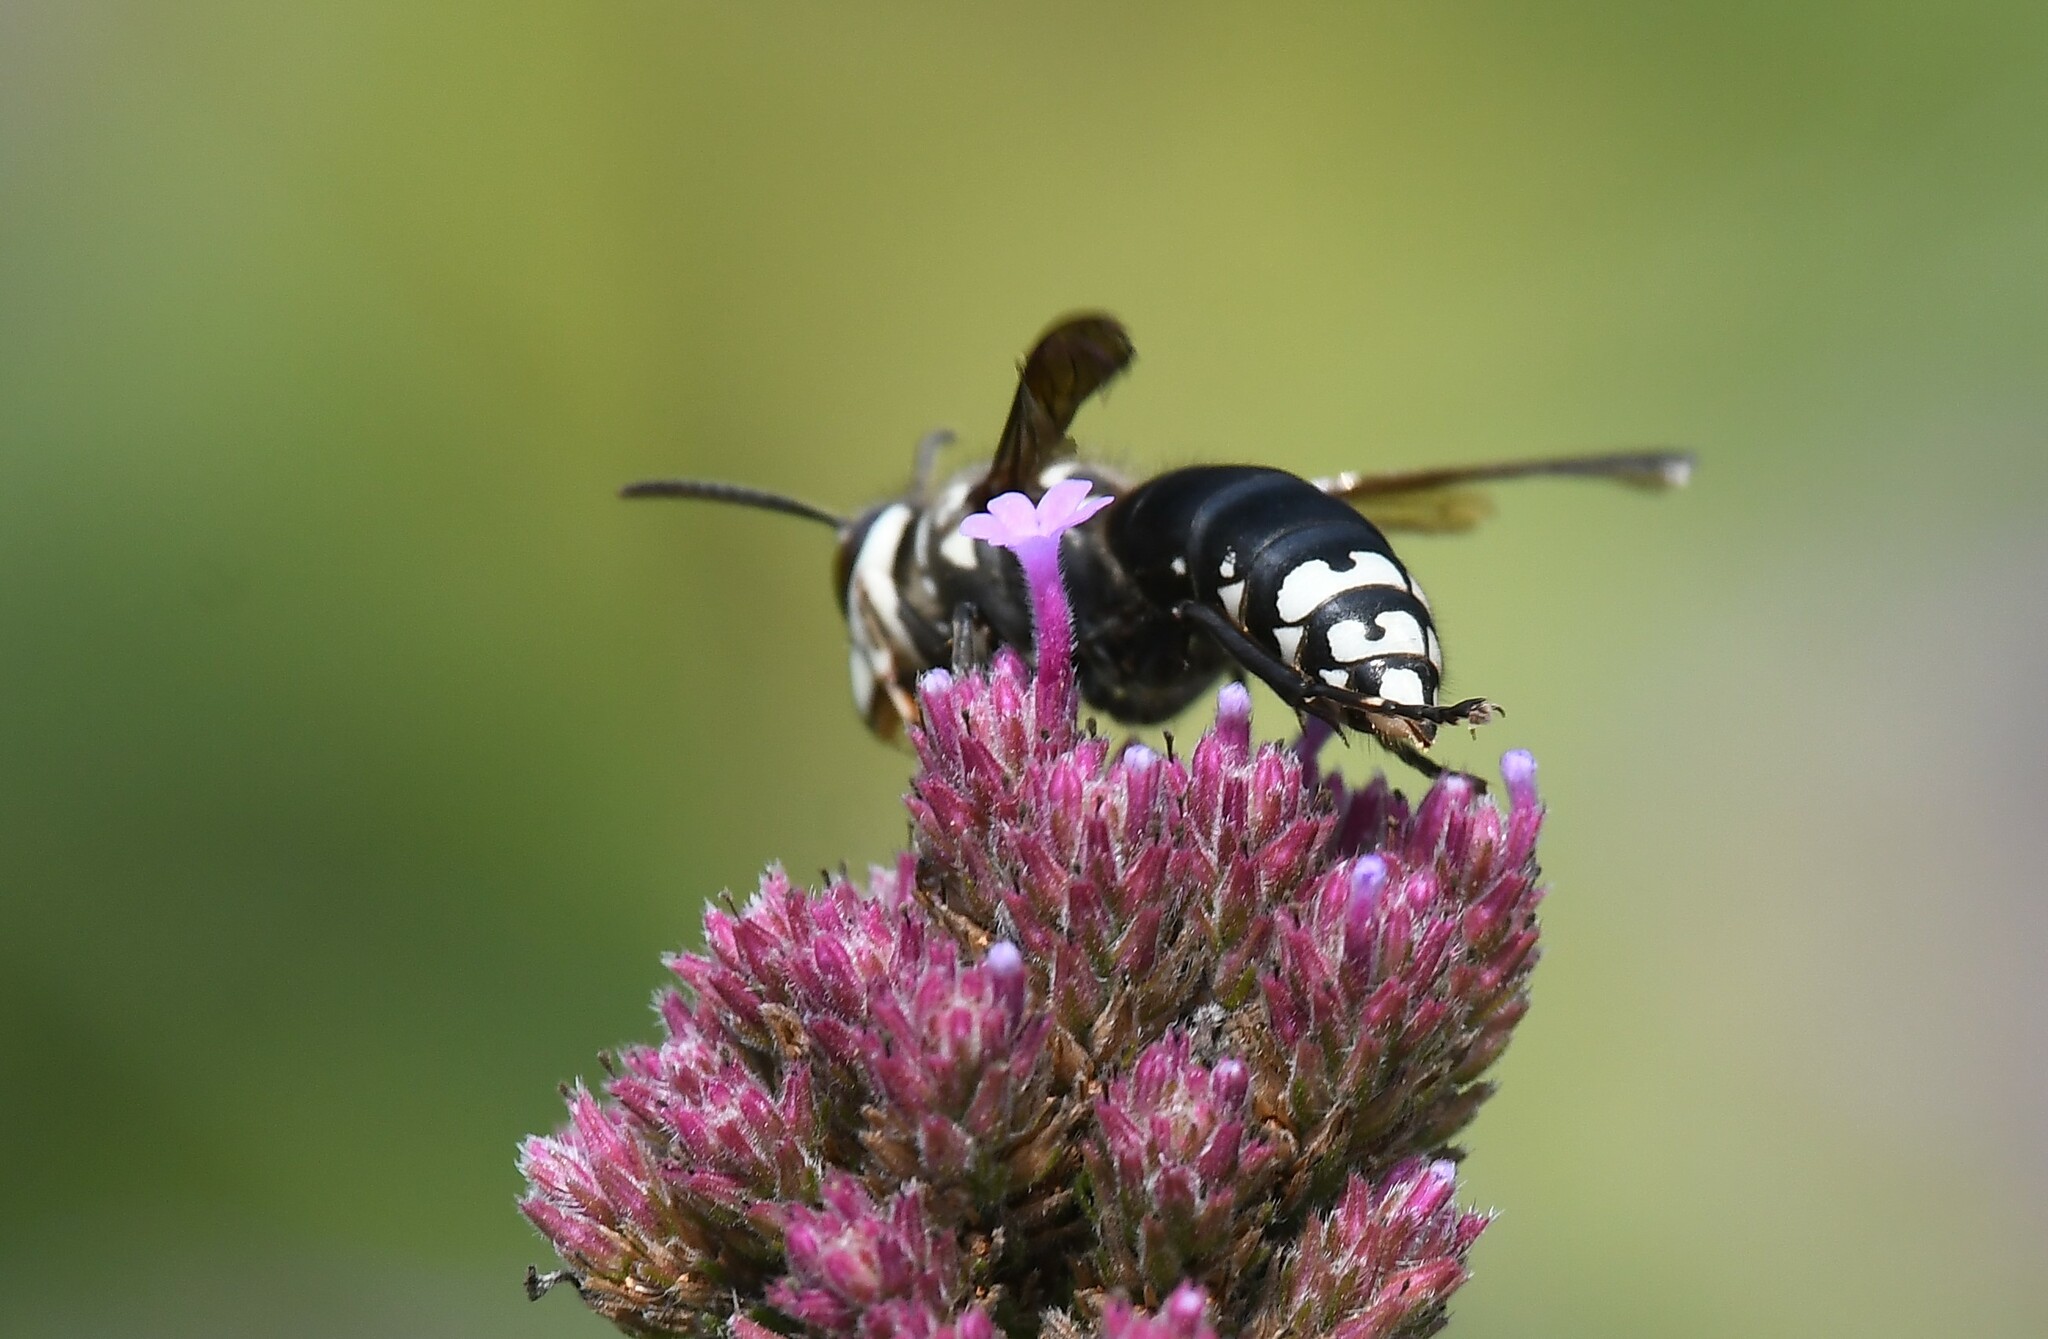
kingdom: Animalia
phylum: Arthropoda
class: Insecta
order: Hymenoptera
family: Vespidae
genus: Dolichovespula
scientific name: Dolichovespula maculata
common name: Bald-faced hornet
